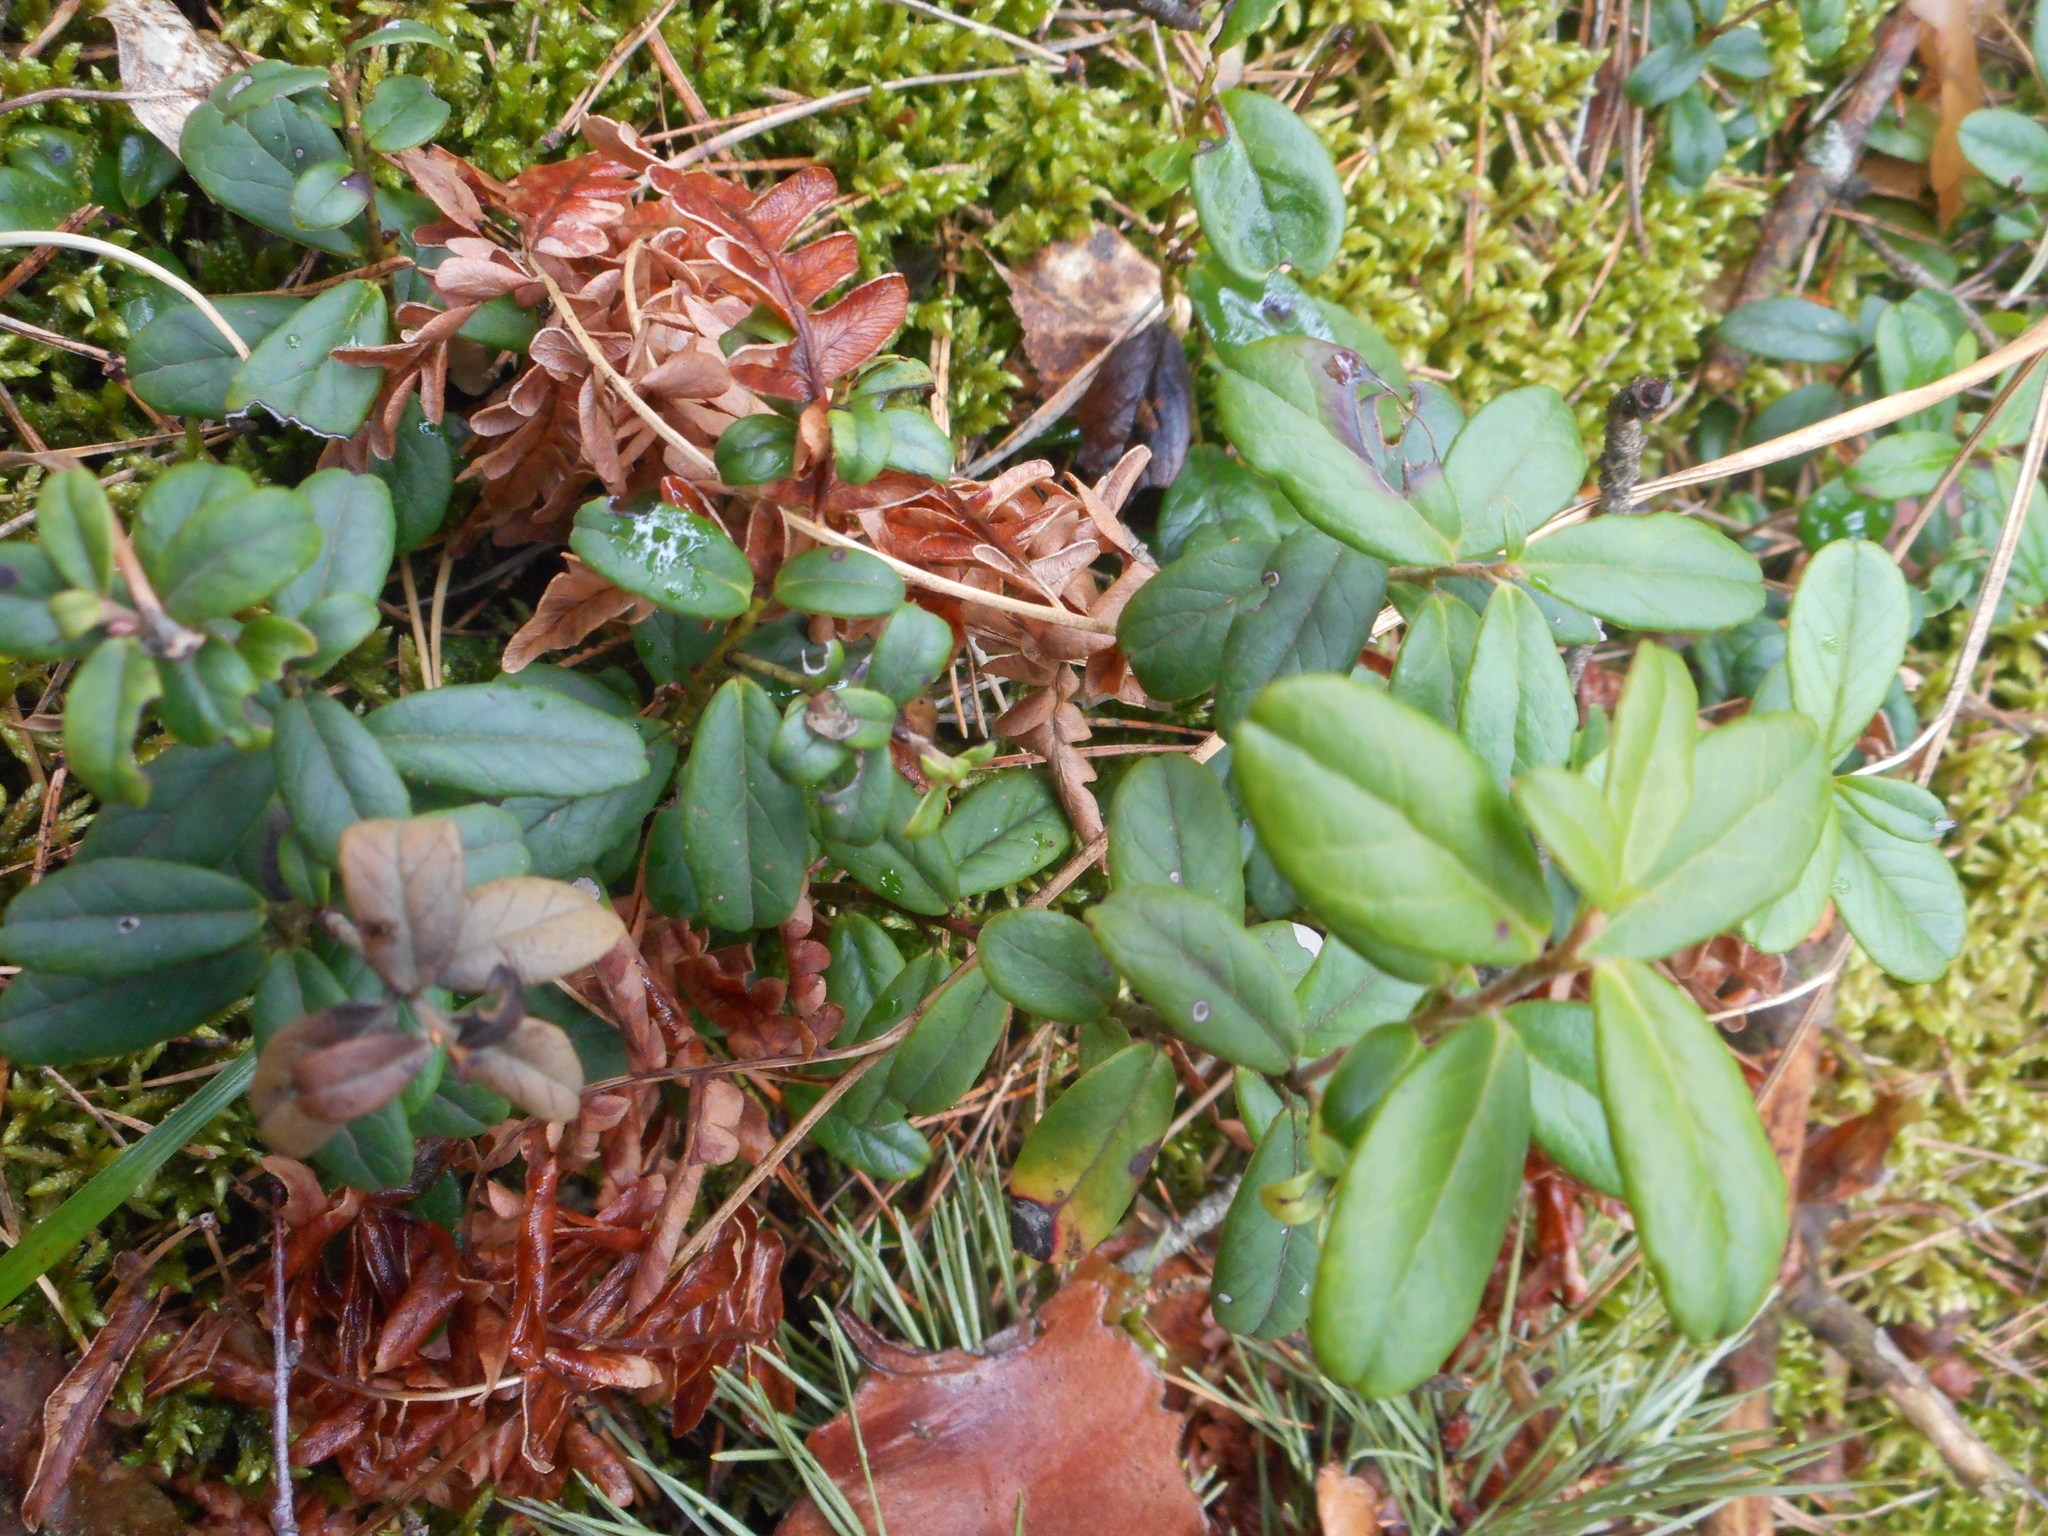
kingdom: Plantae
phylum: Tracheophyta
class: Magnoliopsida
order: Ericales
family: Ericaceae
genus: Vaccinium
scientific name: Vaccinium vitis-idaea
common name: Cowberry
